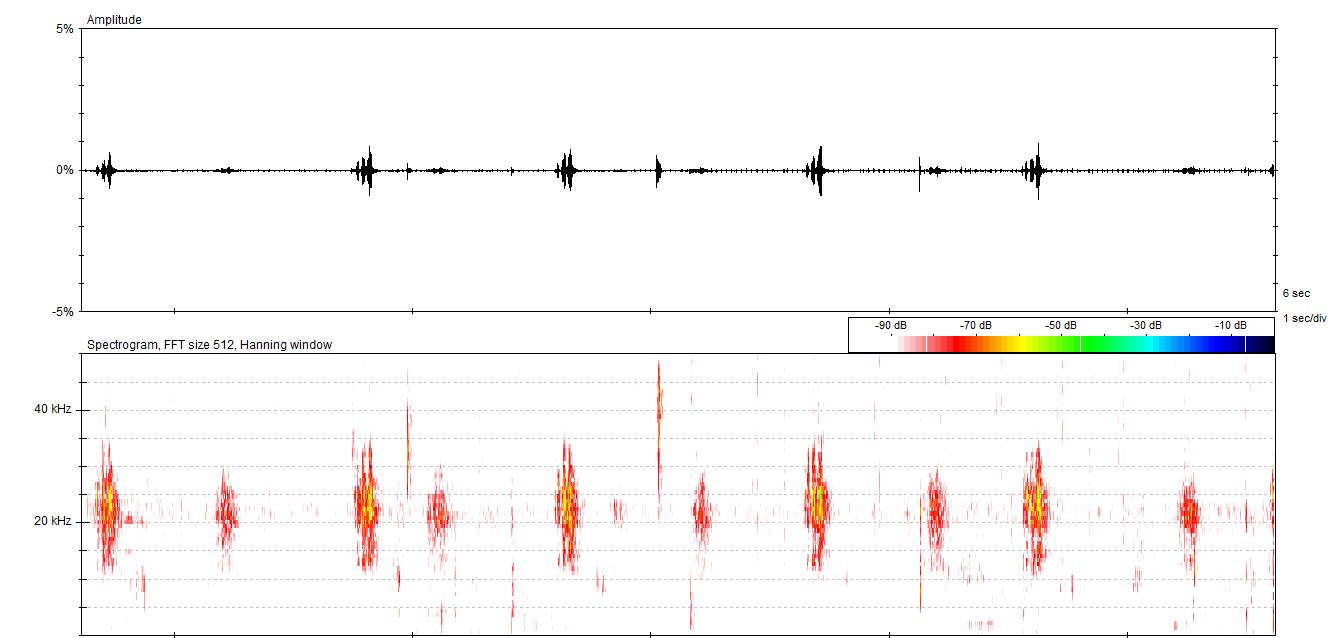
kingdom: Animalia
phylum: Arthropoda
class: Insecta
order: Orthoptera
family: Tettigoniidae
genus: Pholidoptera
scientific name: Pholidoptera griseoaptera
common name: Dark bush-cricket
